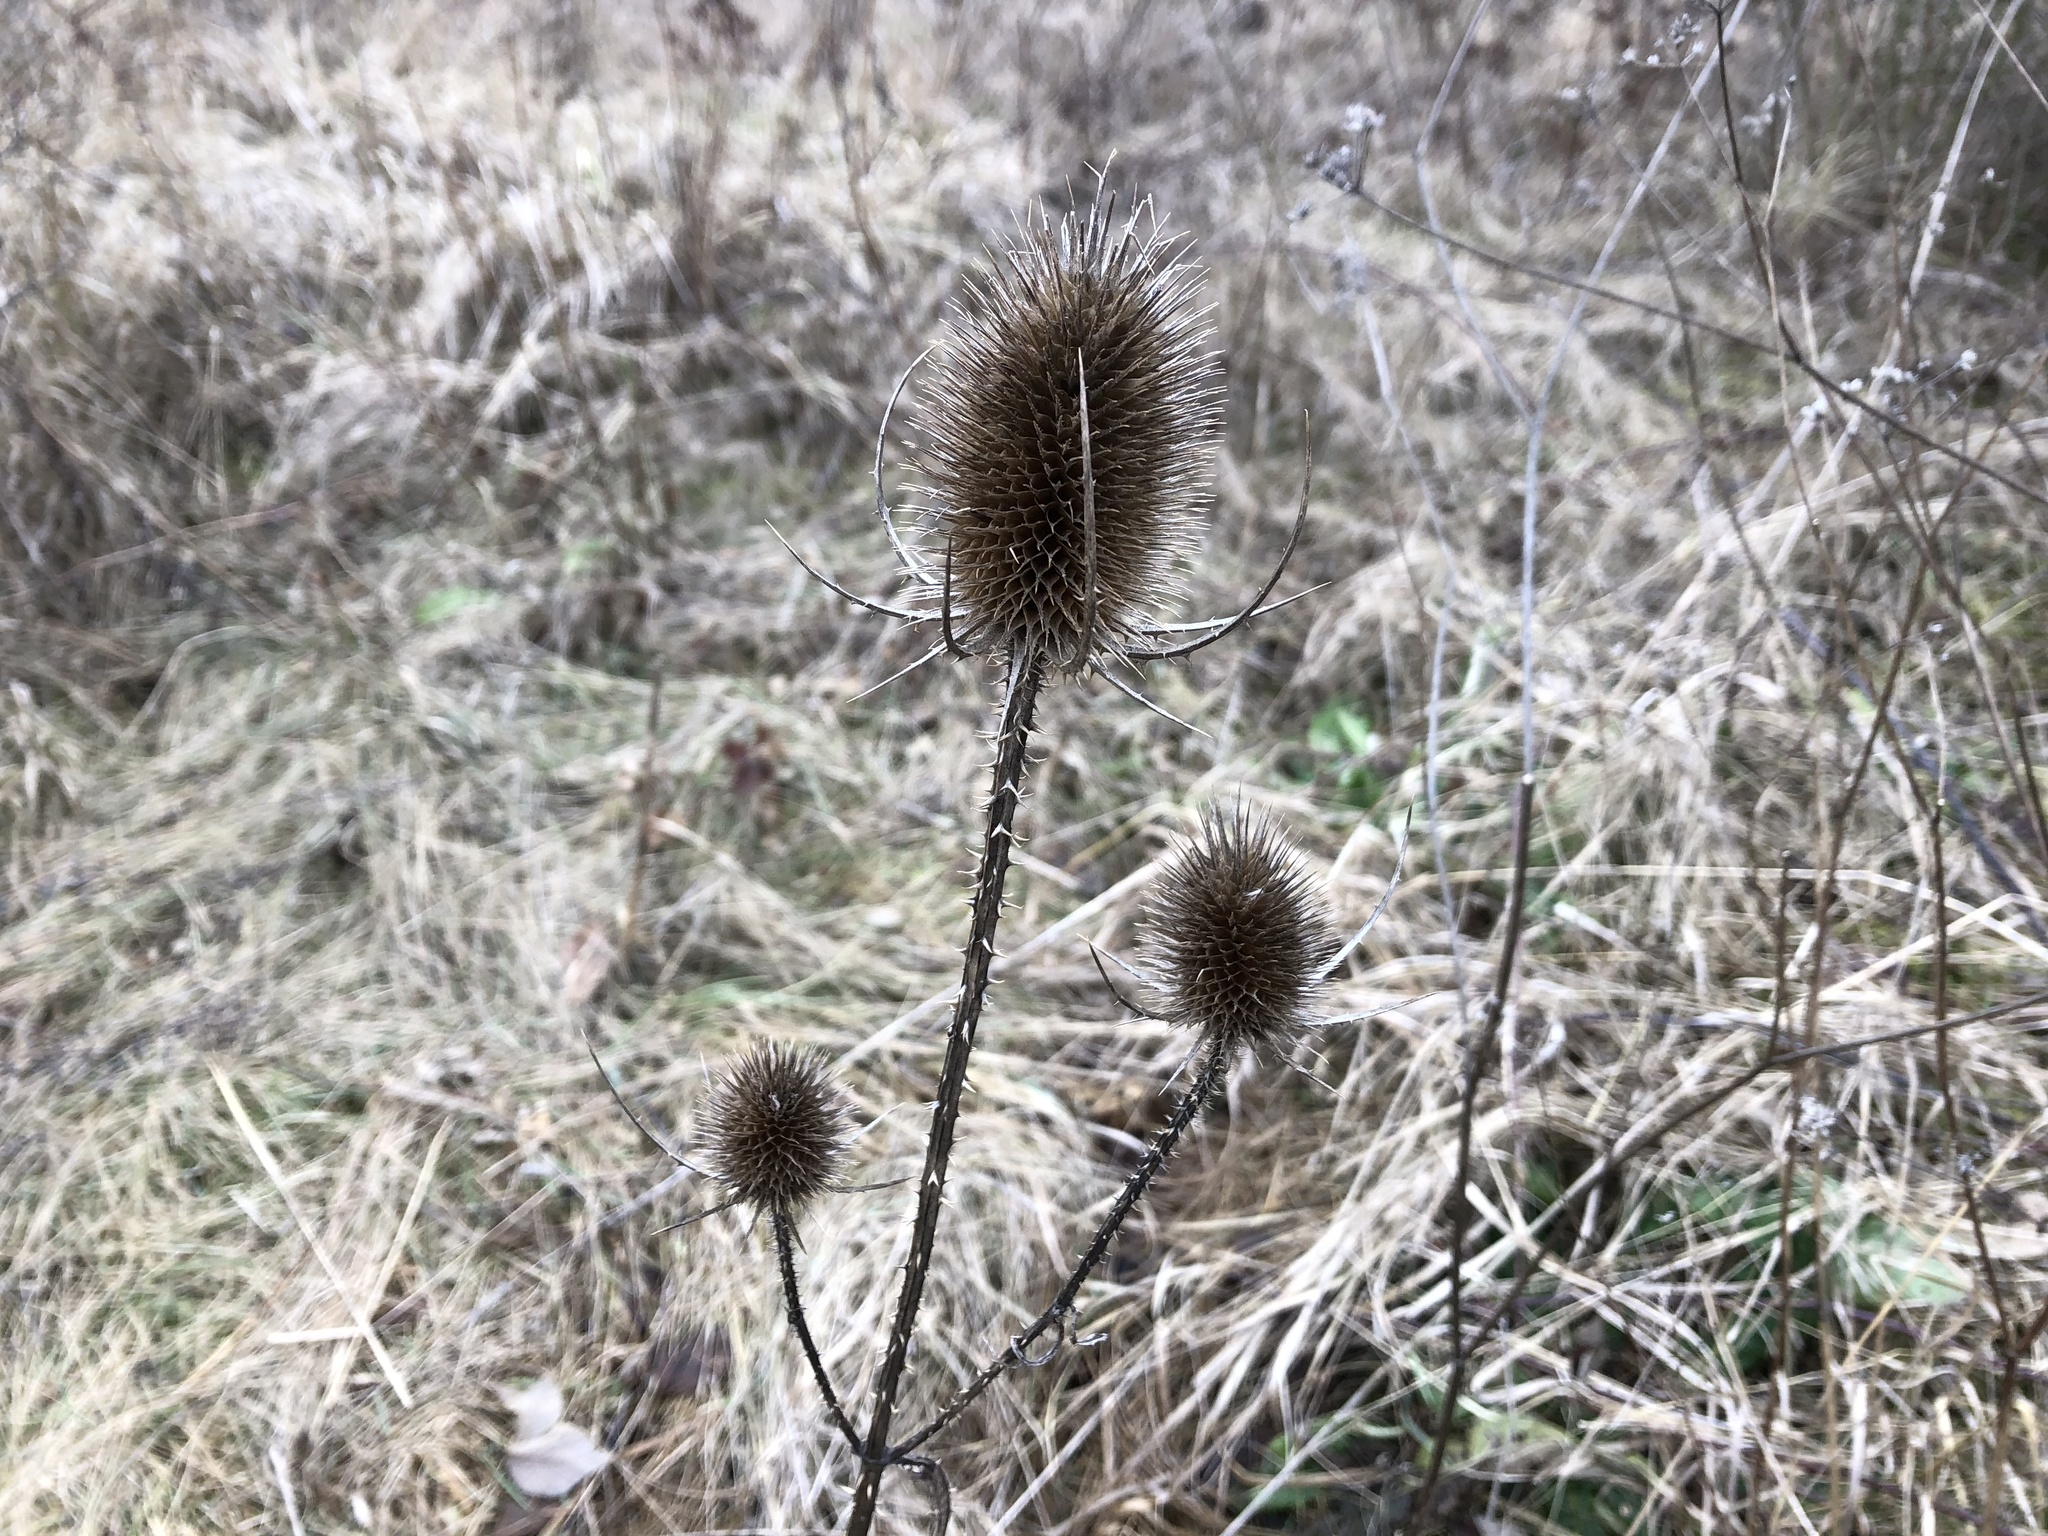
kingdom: Plantae
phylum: Tracheophyta
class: Magnoliopsida
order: Dipsacales
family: Caprifoliaceae
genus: Dipsacus
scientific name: Dipsacus fullonum
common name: Teasel
